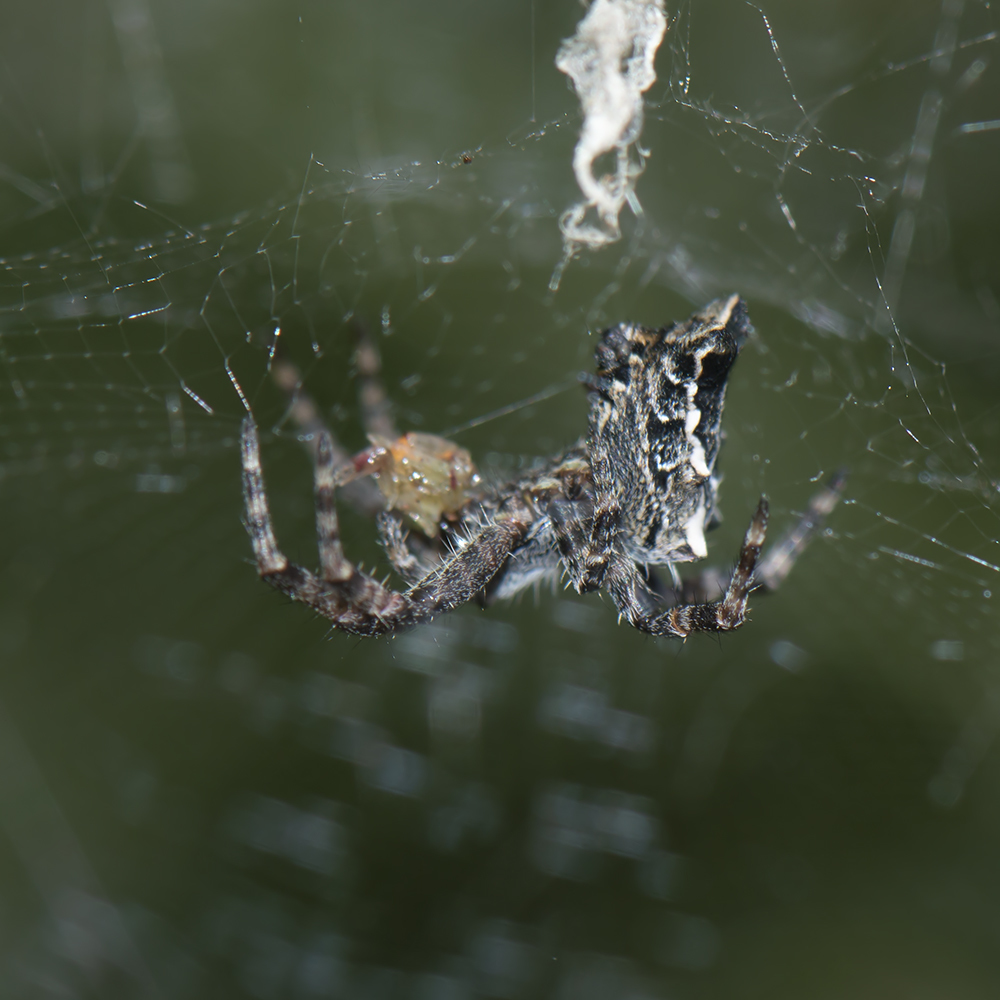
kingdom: Animalia
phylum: Arthropoda
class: Arachnida
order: Araneae
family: Araneidae
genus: Cyrtophora
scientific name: Cyrtophora citricola
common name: Orb weavers
